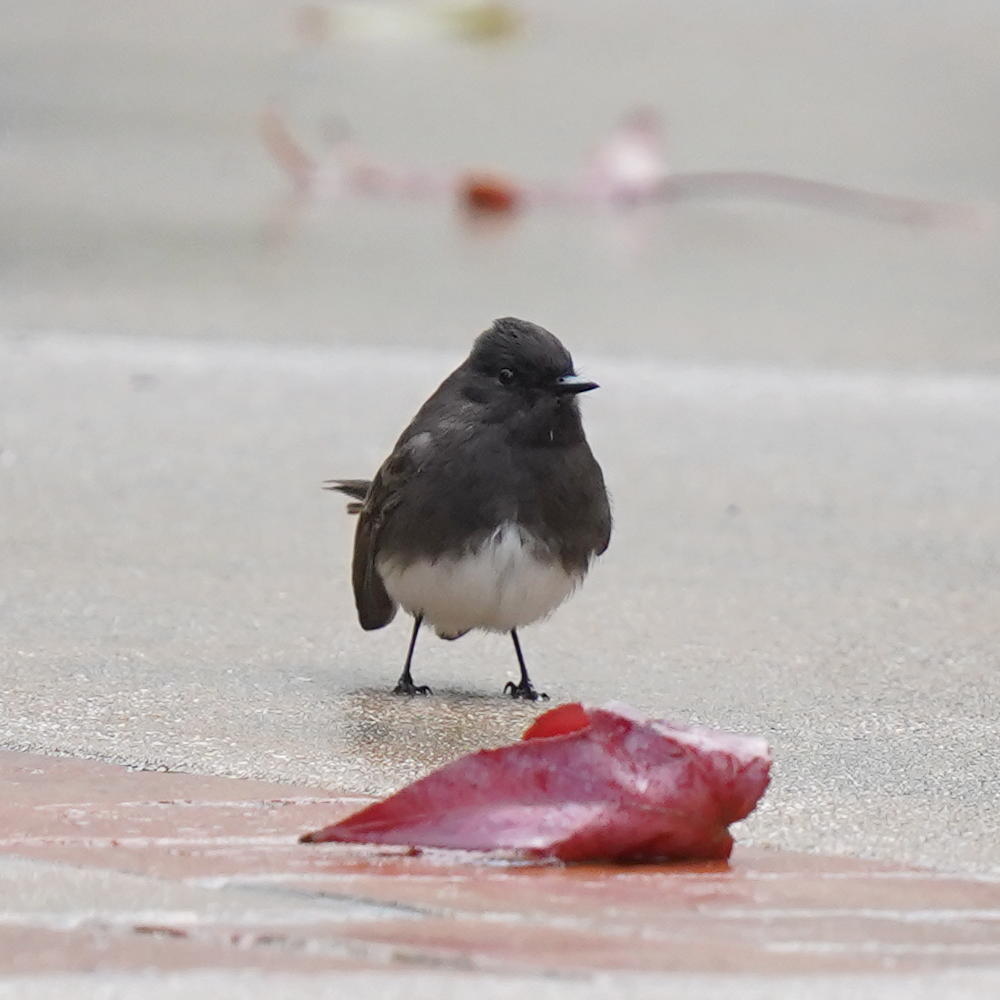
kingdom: Animalia
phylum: Chordata
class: Aves
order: Passeriformes
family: Tyrannidae
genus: Sayornis
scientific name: Sayornis nigricans
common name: Black phoebe
